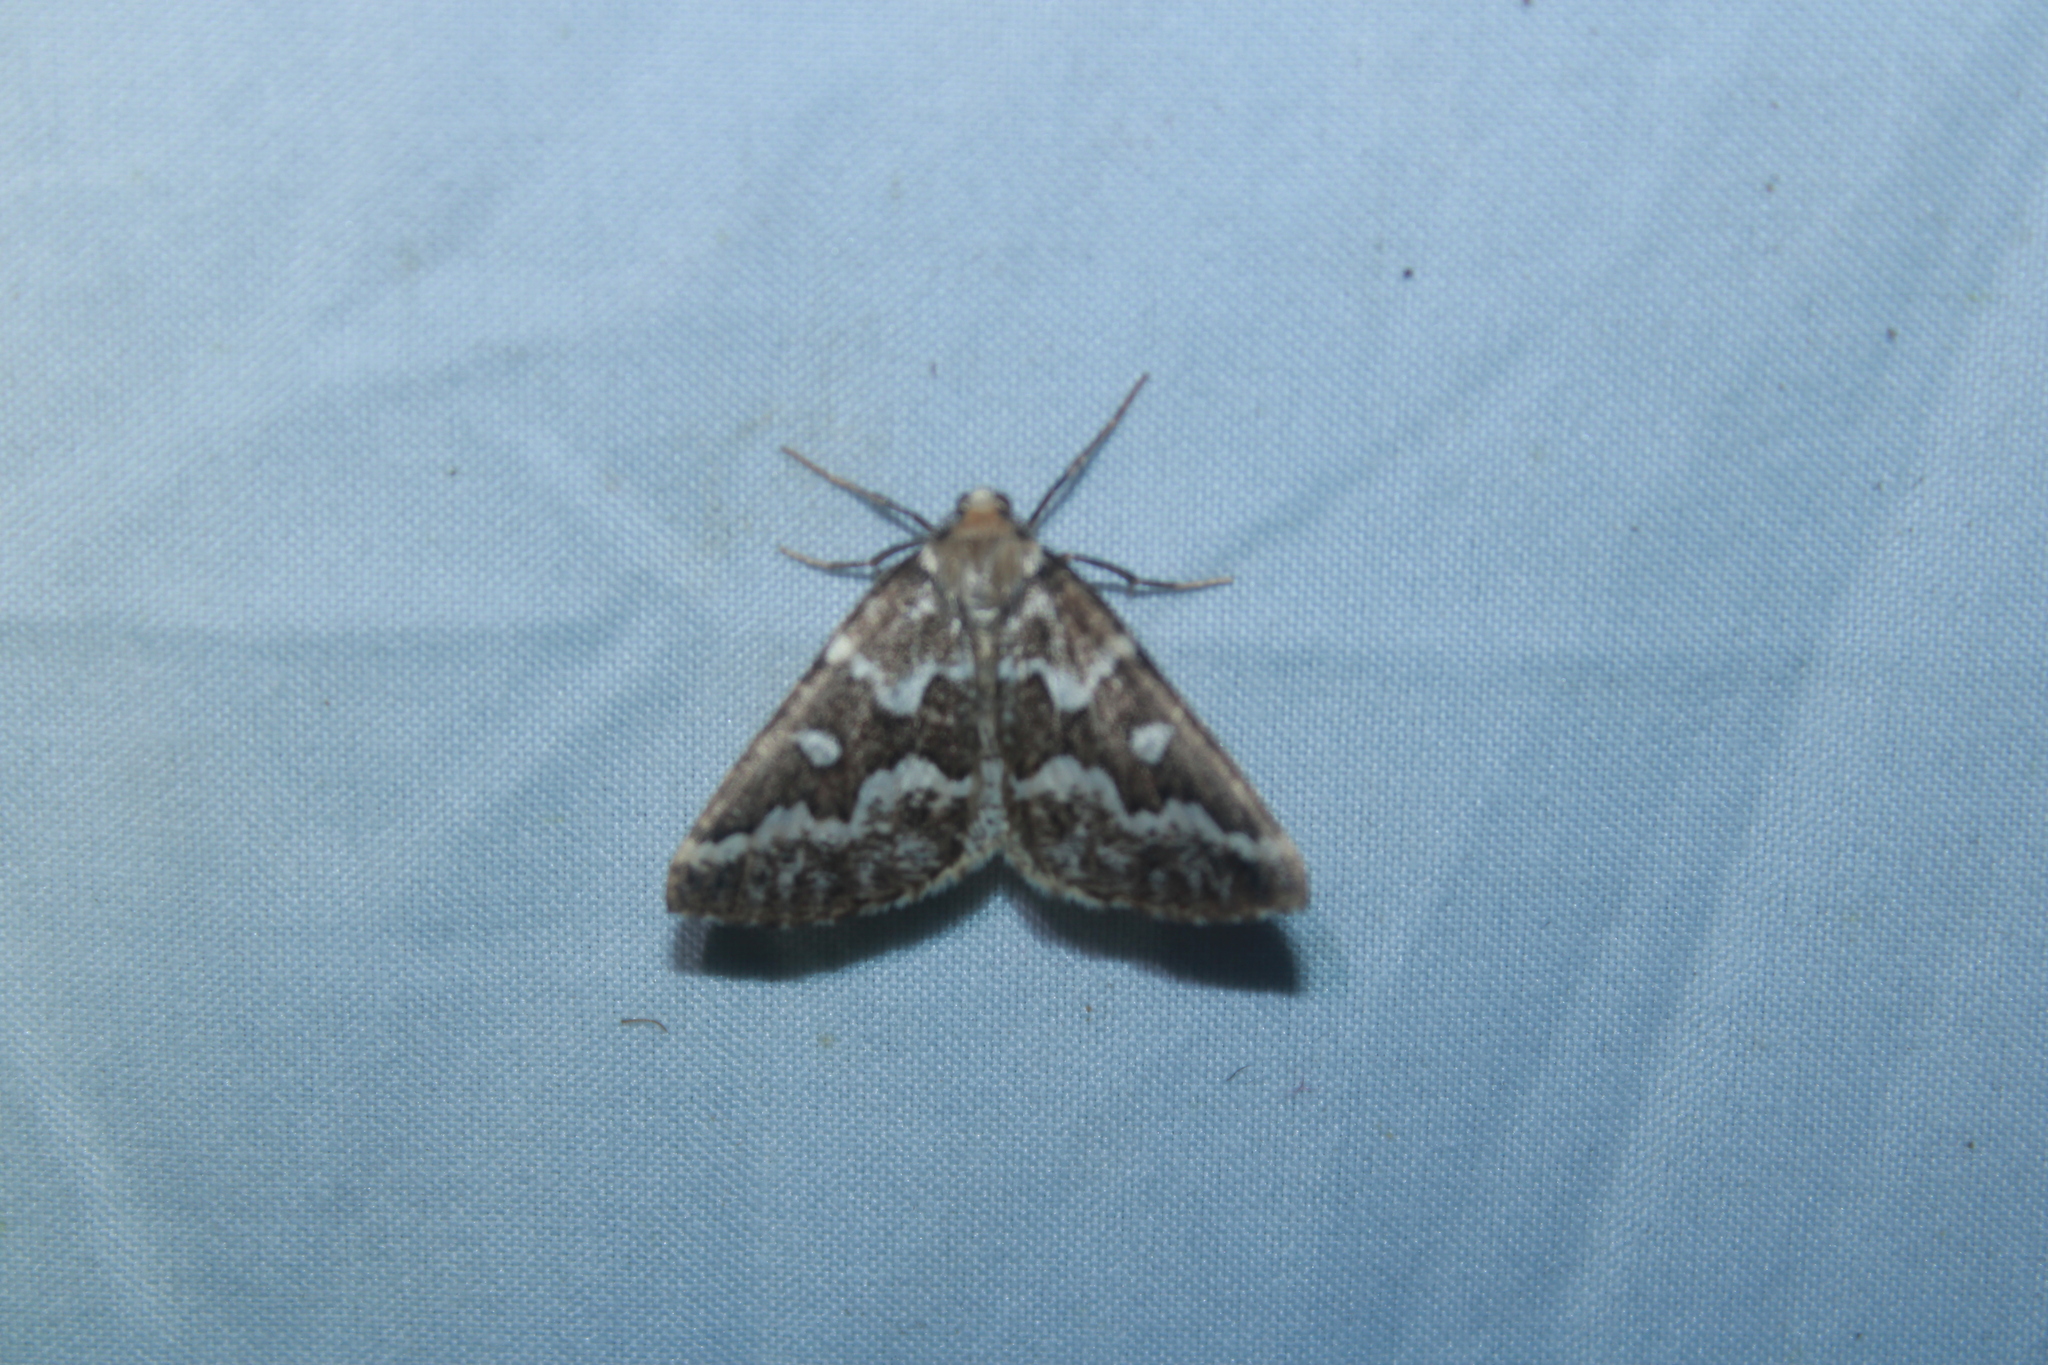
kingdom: Animalia
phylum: Arthropoda
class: Insecta
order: Lepidoptera
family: Geometridae
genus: Caripeta
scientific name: Caripeta divisata
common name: Gray spruce looper
